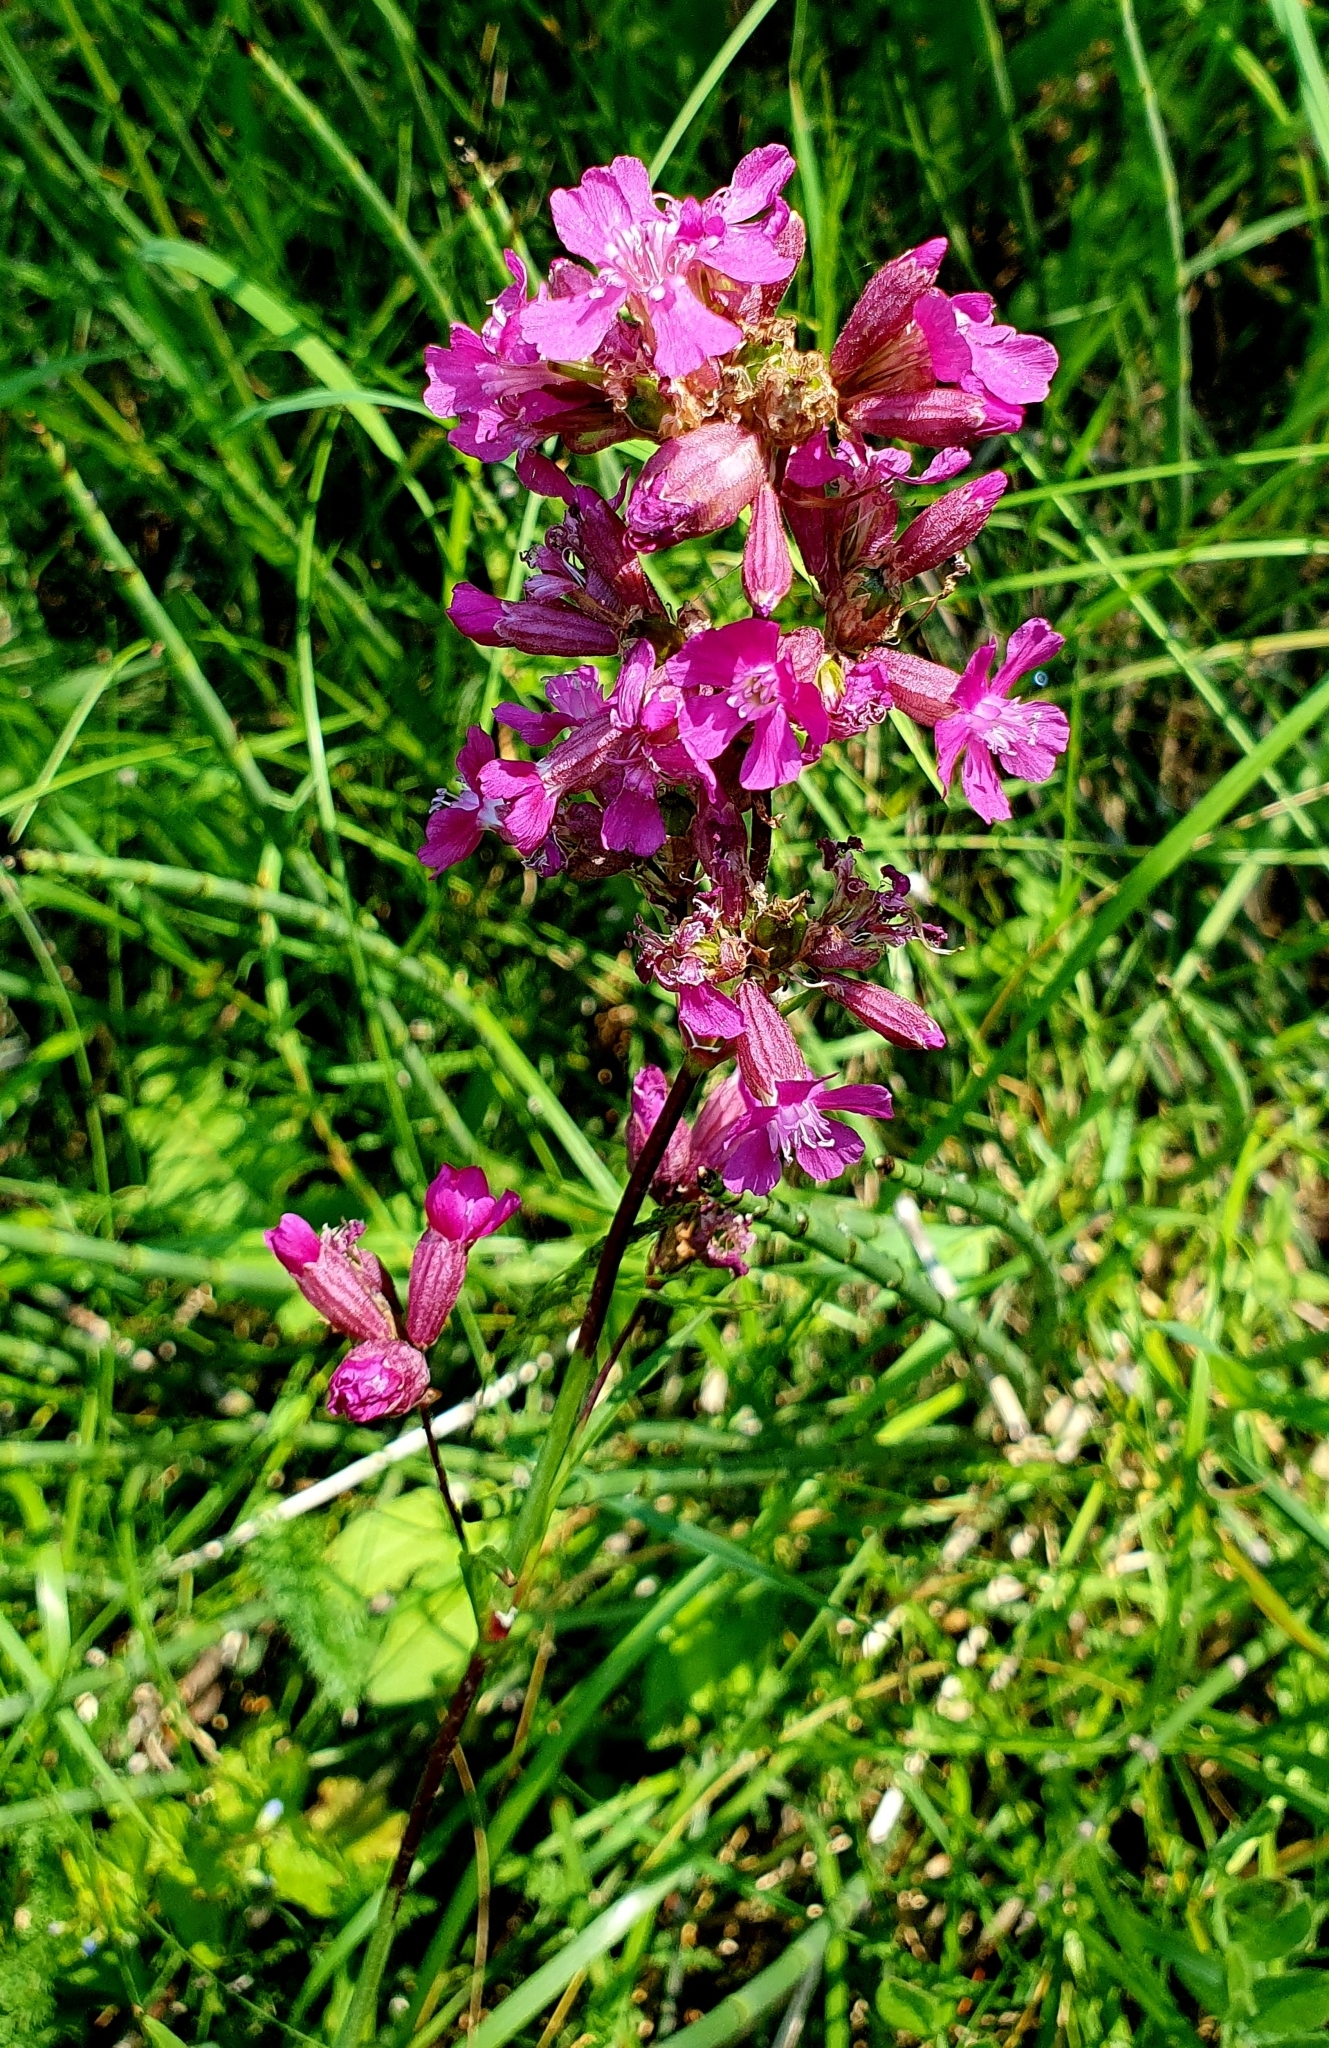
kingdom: Plantae
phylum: Tracheophyta
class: Magnoliopsida
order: Caryophyllales
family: Caryophyllaceae
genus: Viscaria
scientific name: Viscaria vulgaris
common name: Clammy campion
